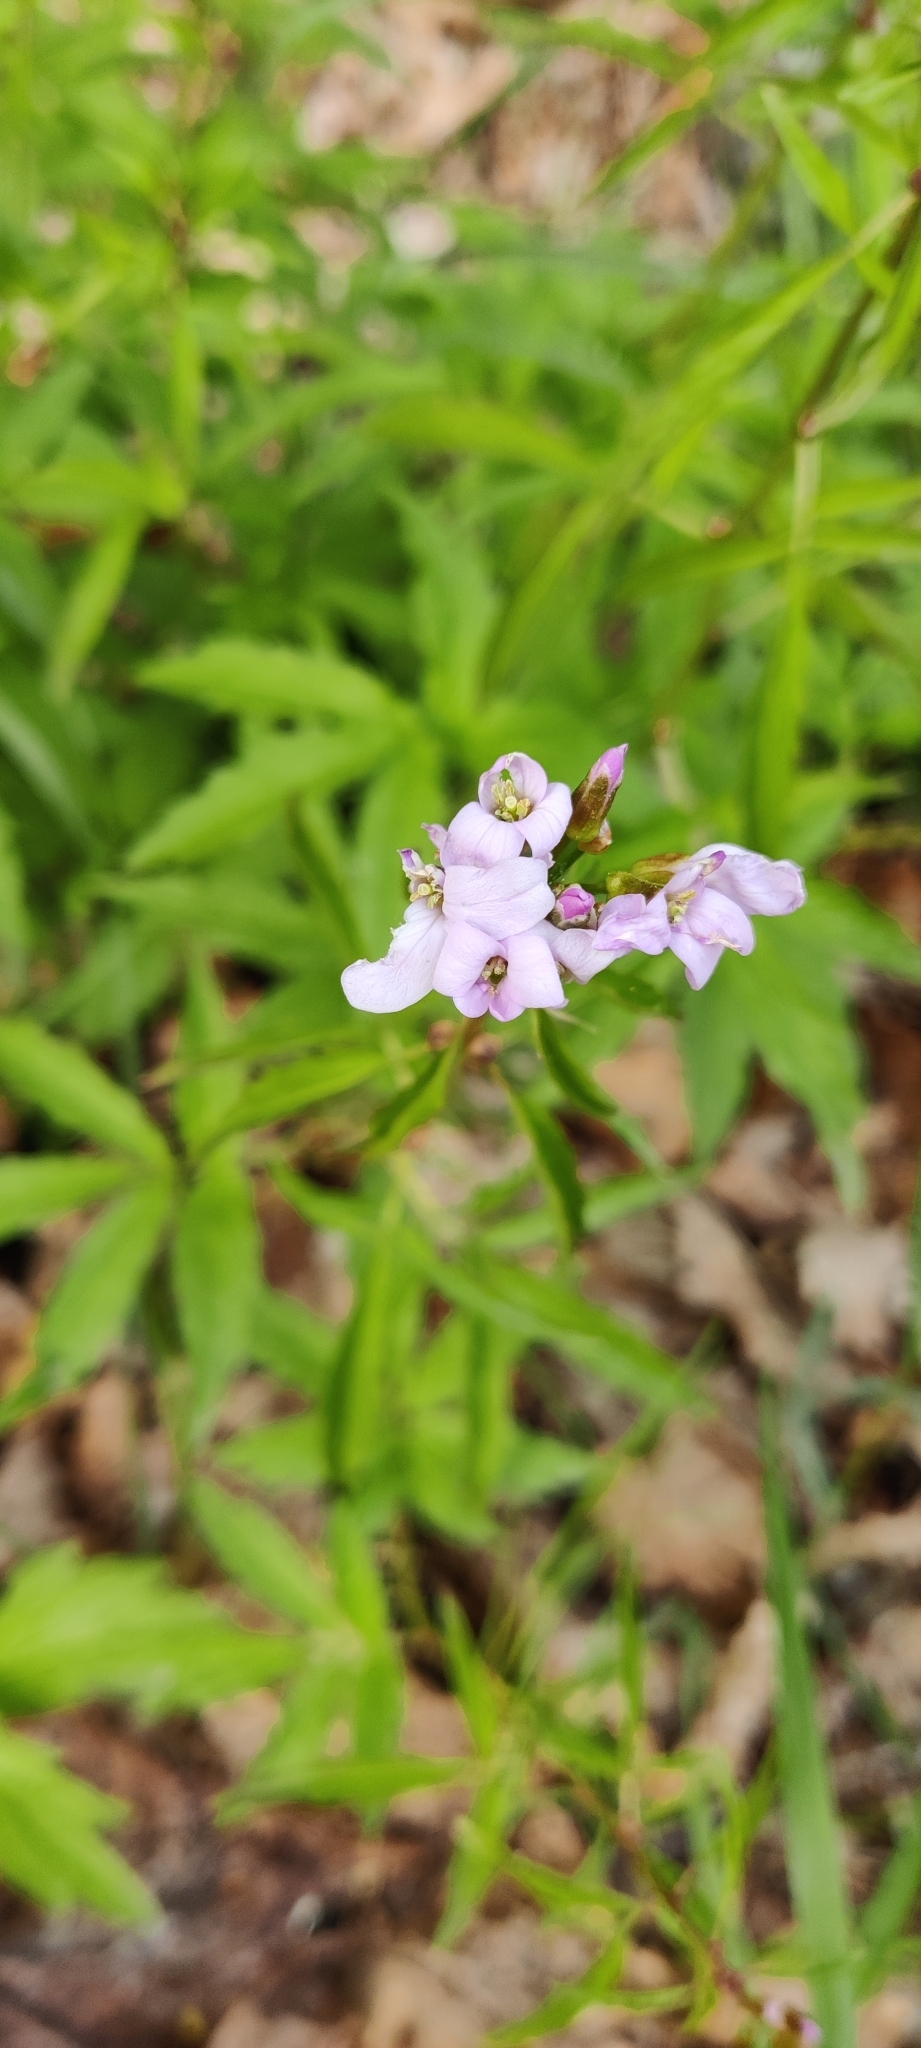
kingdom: Plantae
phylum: Tracheophyta
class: Magnoliopsida
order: Brassicales
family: Brassicaceae
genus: Cardamine
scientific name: Cardamine bulbifera
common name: Coralroot bittercress
